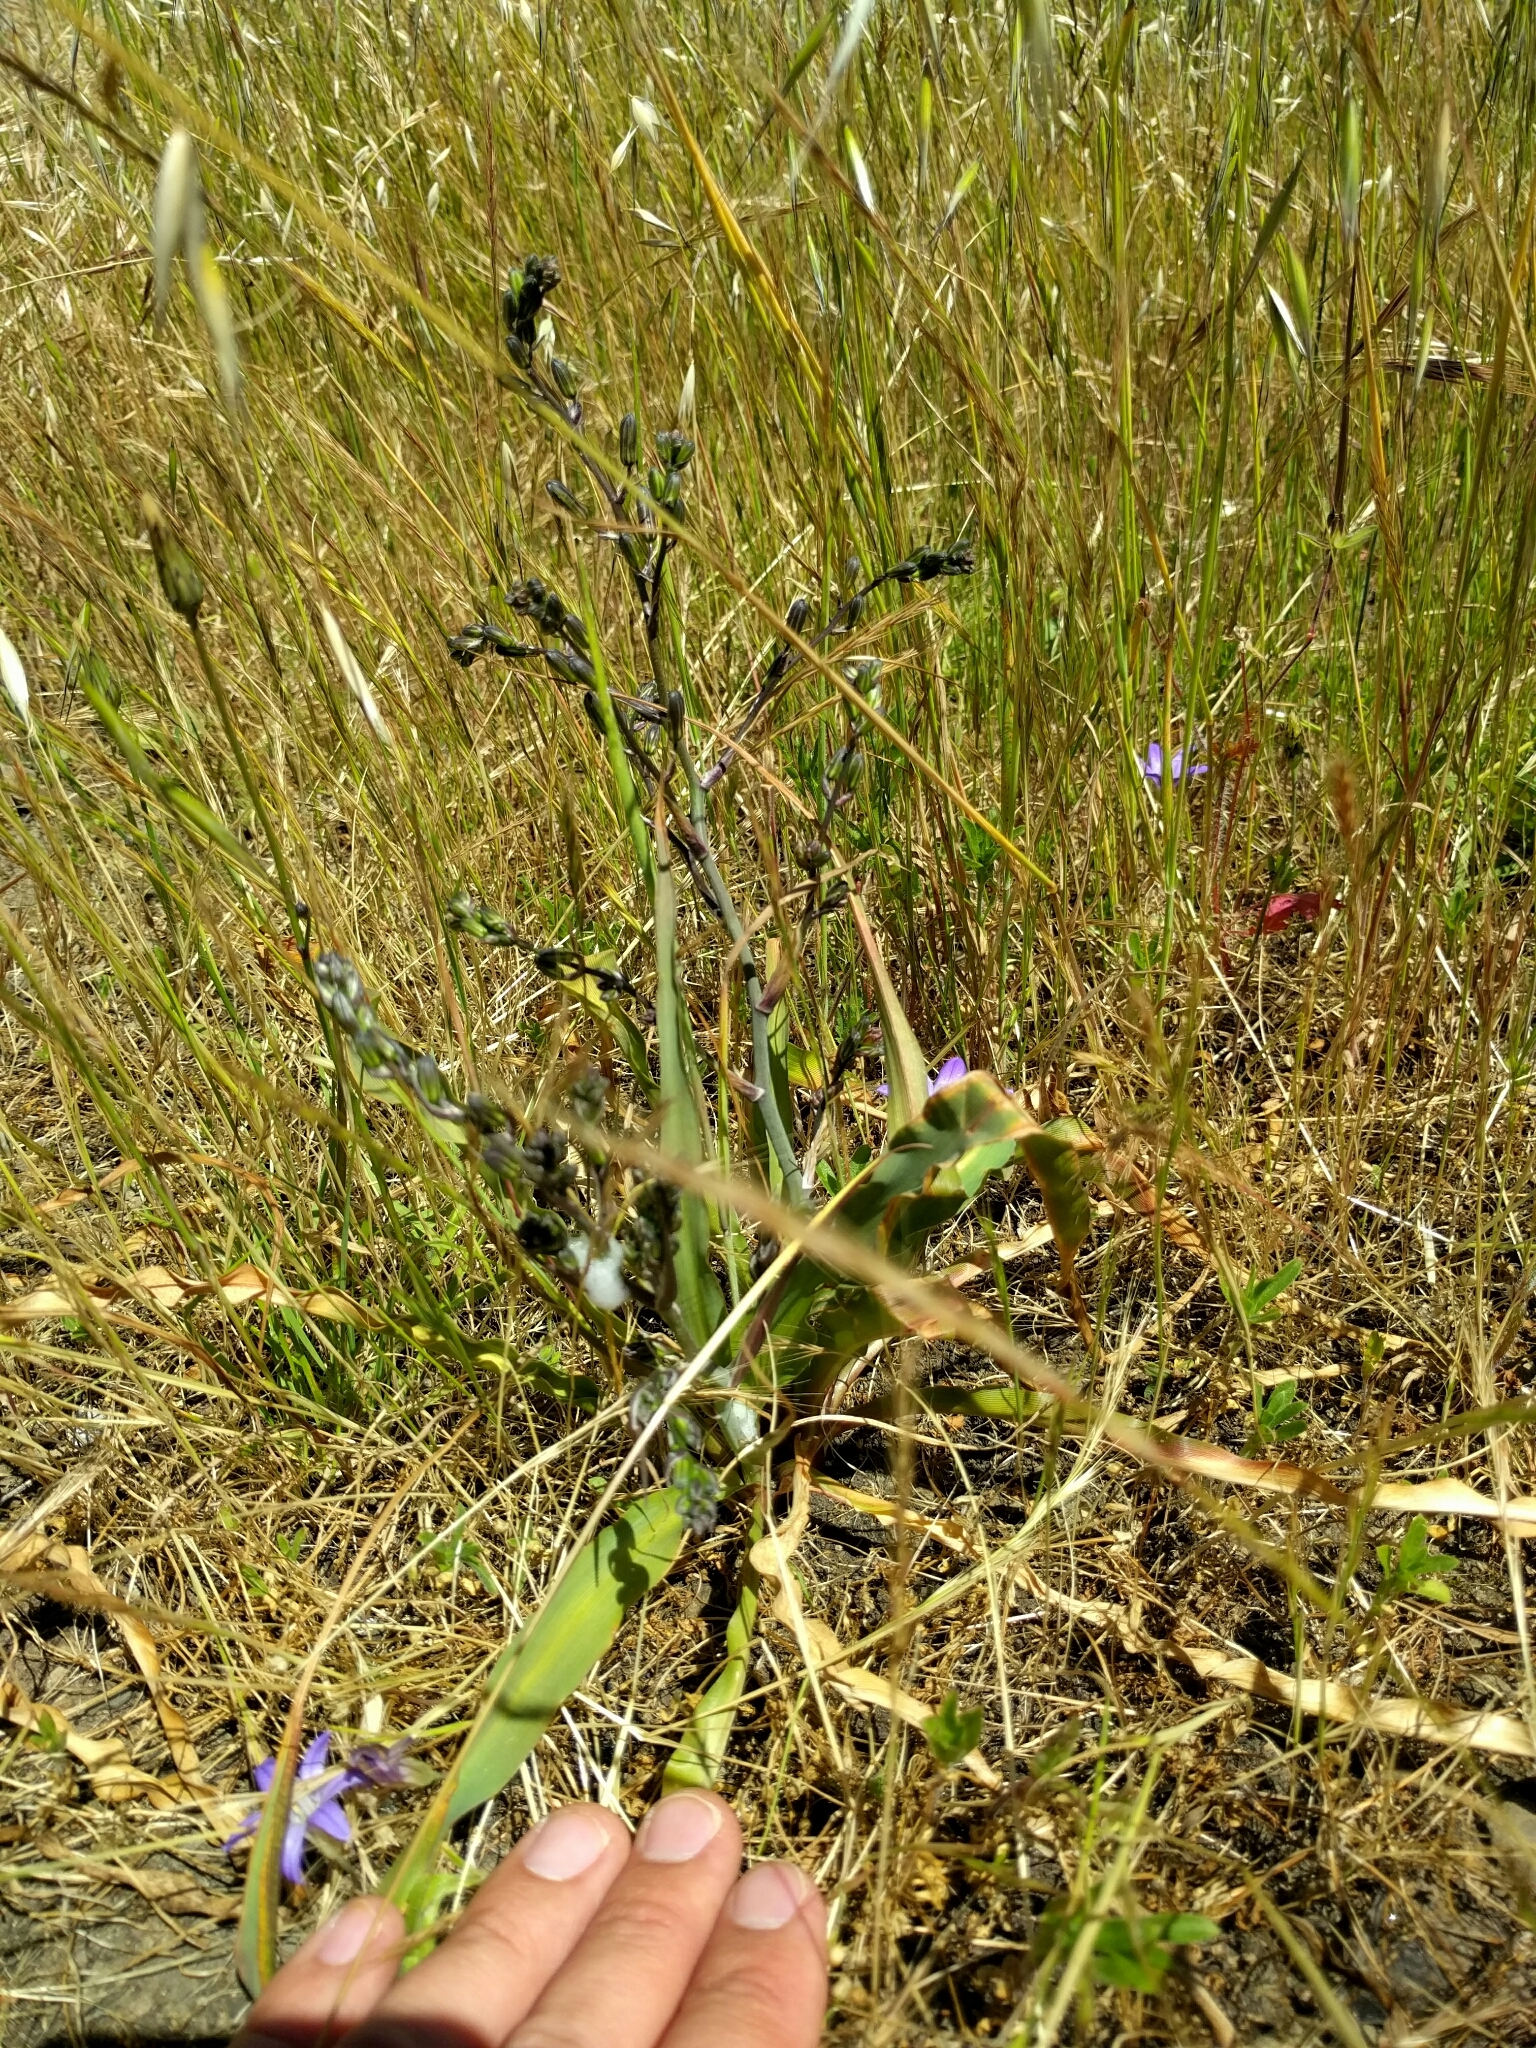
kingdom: Plantae
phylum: Tracheophyta
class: Liliopsida
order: Asparagales
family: Asparagaceae
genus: Chlorogalum
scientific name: Chlorogalum pomeridianum
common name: Amole
